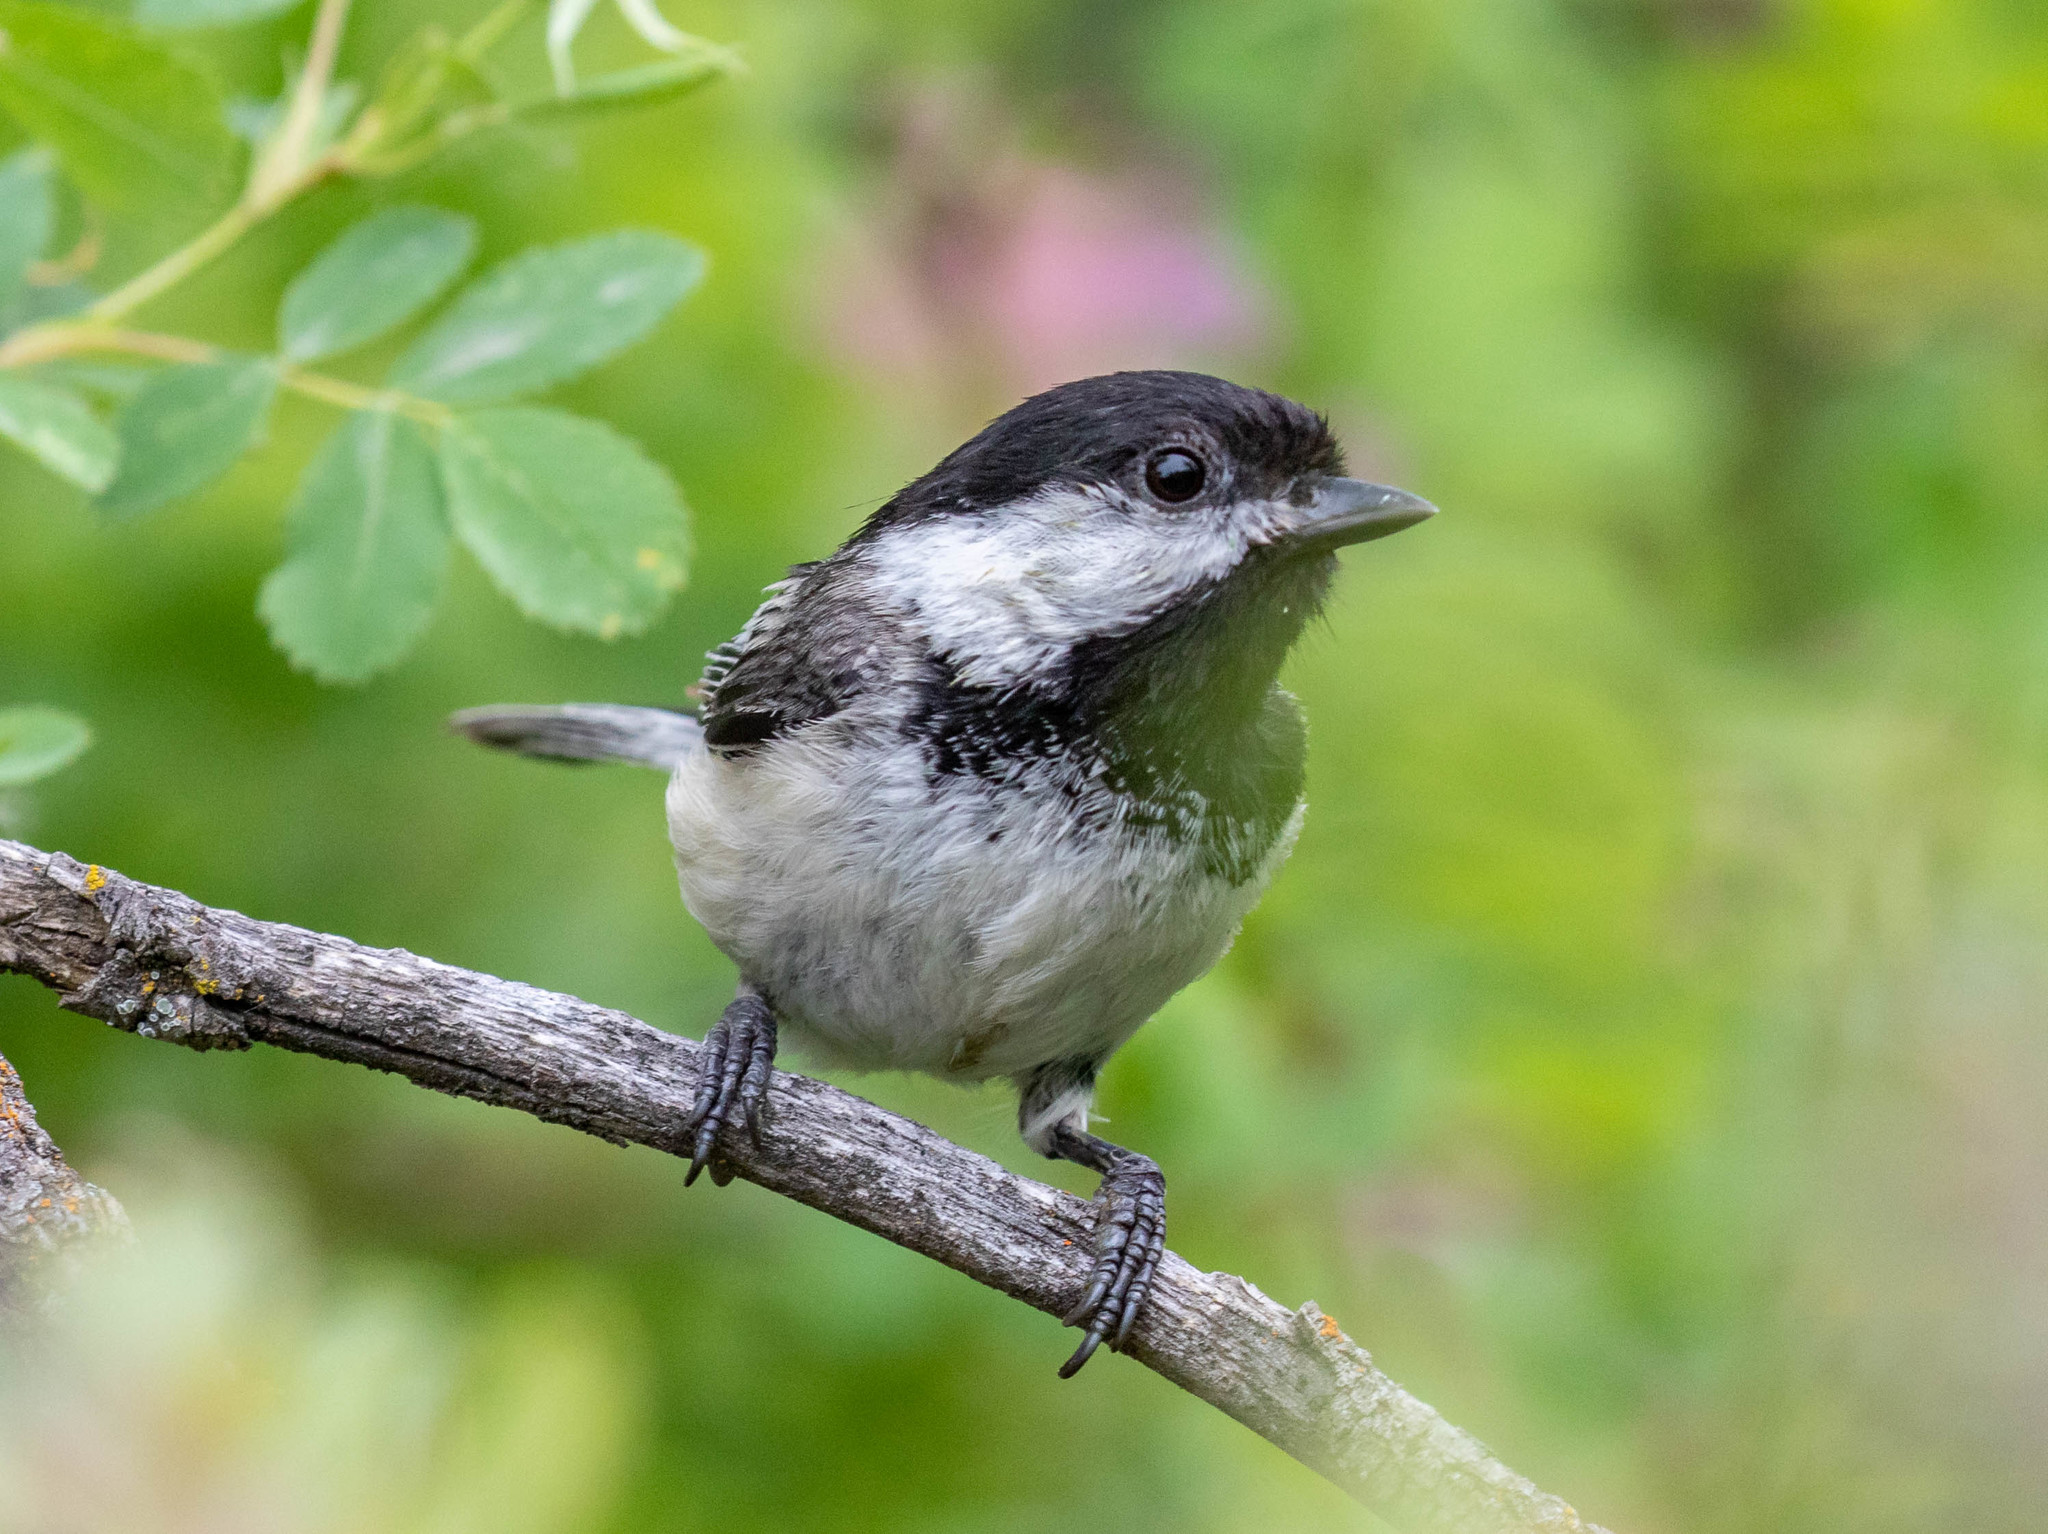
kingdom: Animalia
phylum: Chordata
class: Aves
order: Passeriformes
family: Paridae
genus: Poecile
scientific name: Poecile atricapillus
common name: Black-capped chickadee
